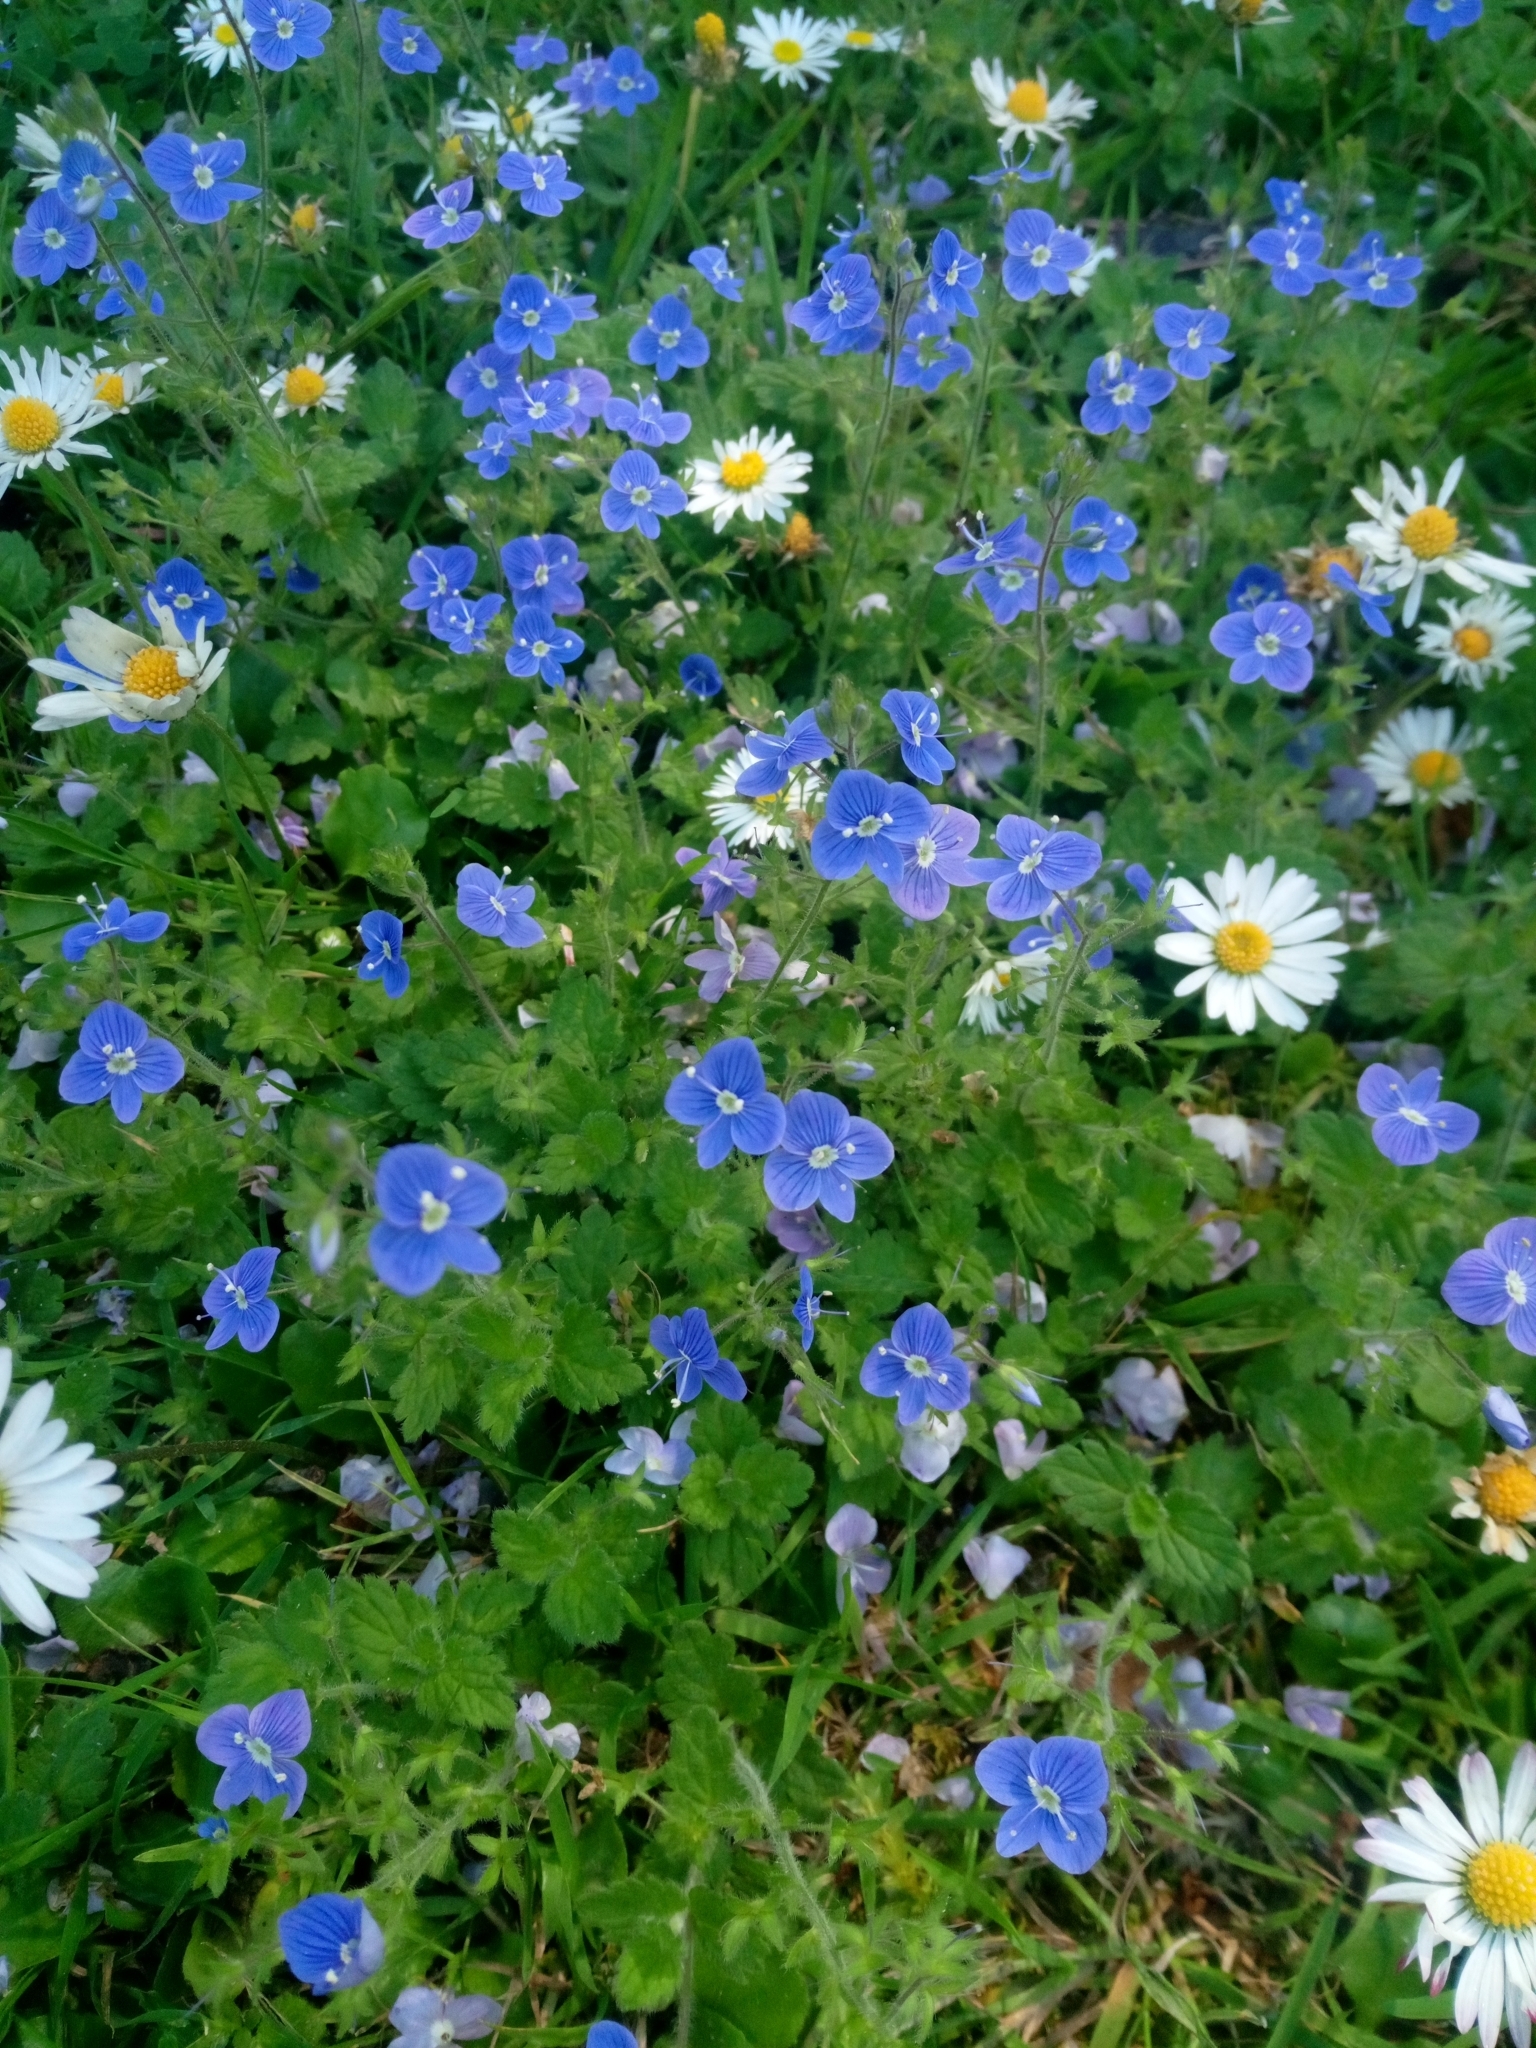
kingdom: Plantae
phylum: Tracheophyta
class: Magnoliopsida
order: Lamiales
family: Plantaginaceae
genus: Veronica
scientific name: Veronica chamaedrys
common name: Germander speedwell
